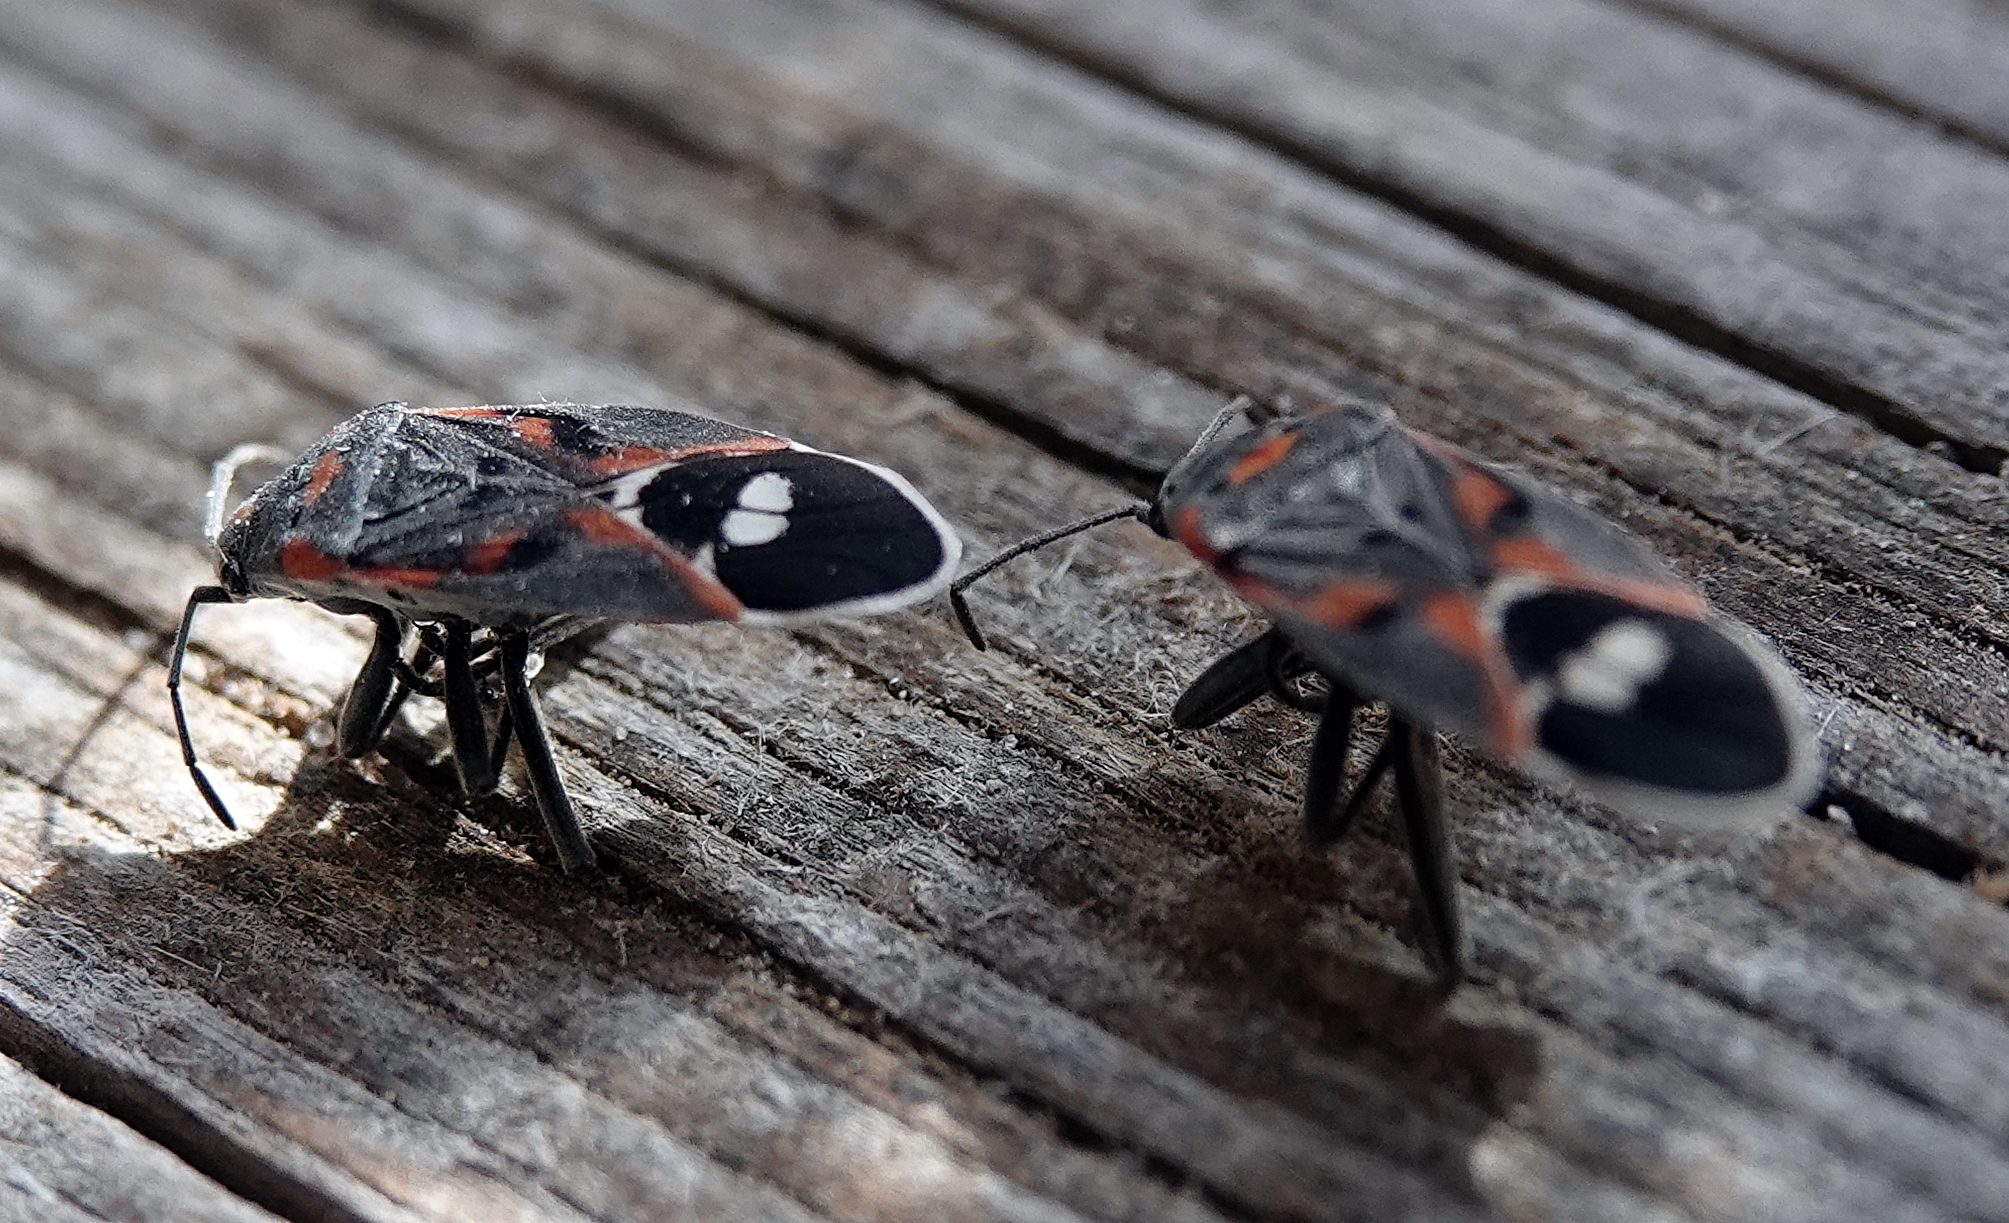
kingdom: Animalia
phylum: Arthropoda
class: Insecta
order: Hemiptera
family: Lygaeidae
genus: Lygaeus
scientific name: Lygaeus kalmii
